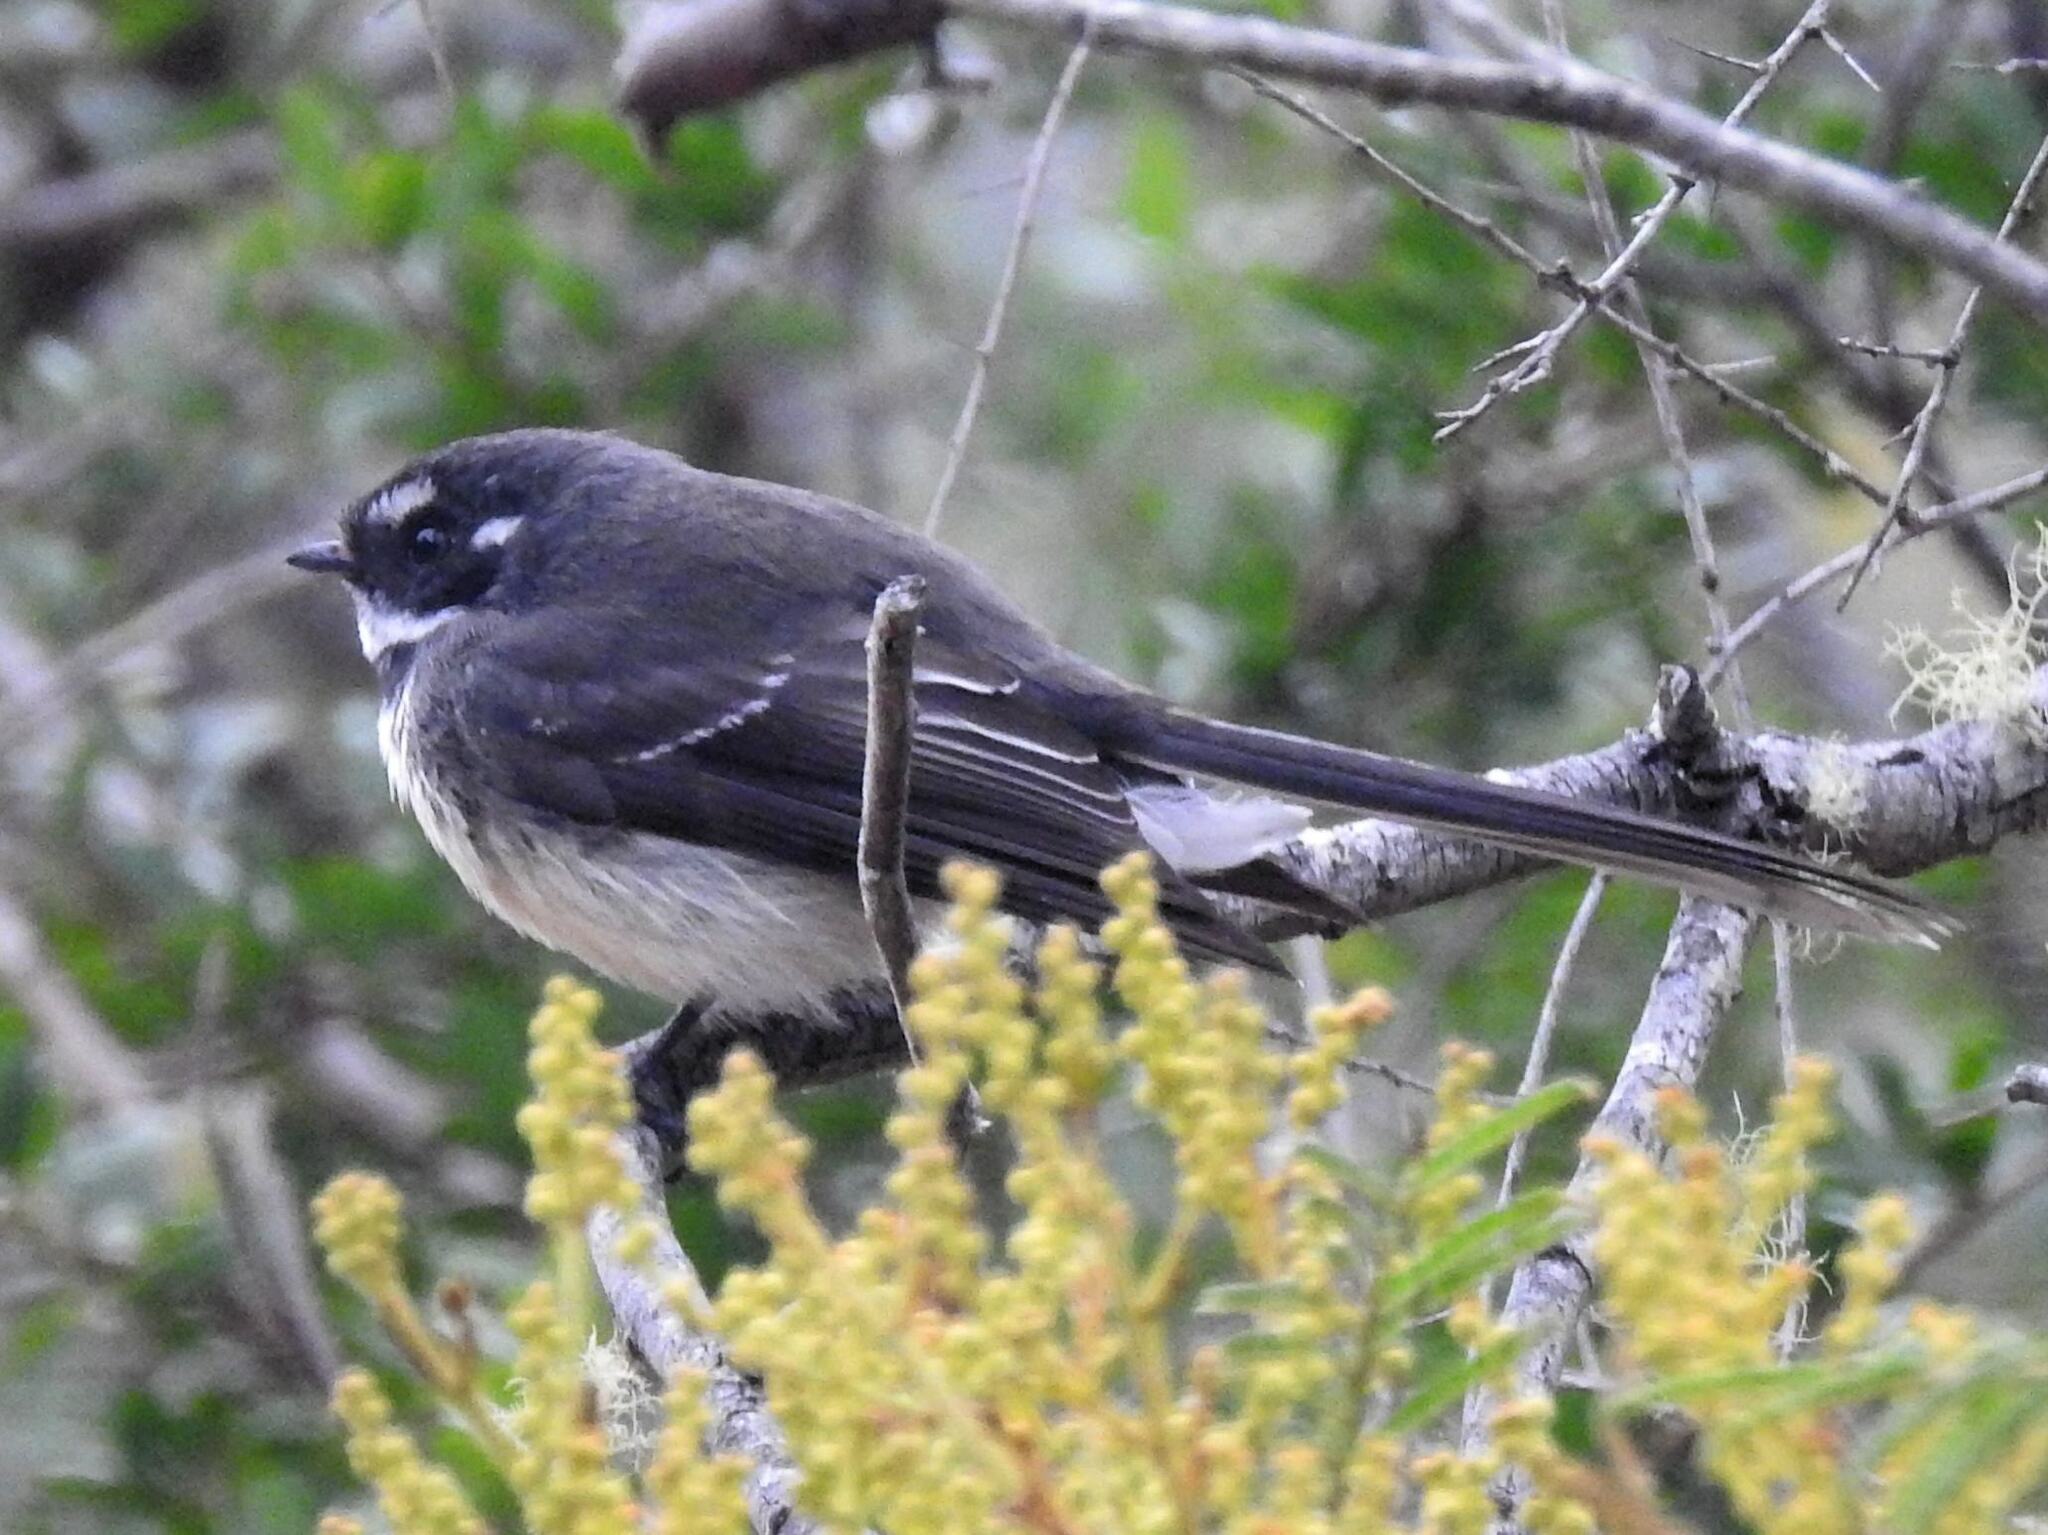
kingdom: Animalia
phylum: Chordata
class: Aves
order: Passeriformes
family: Rhipiduridae
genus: Rhipidura
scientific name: Rhipidura albiscapa
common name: Grey fantail
